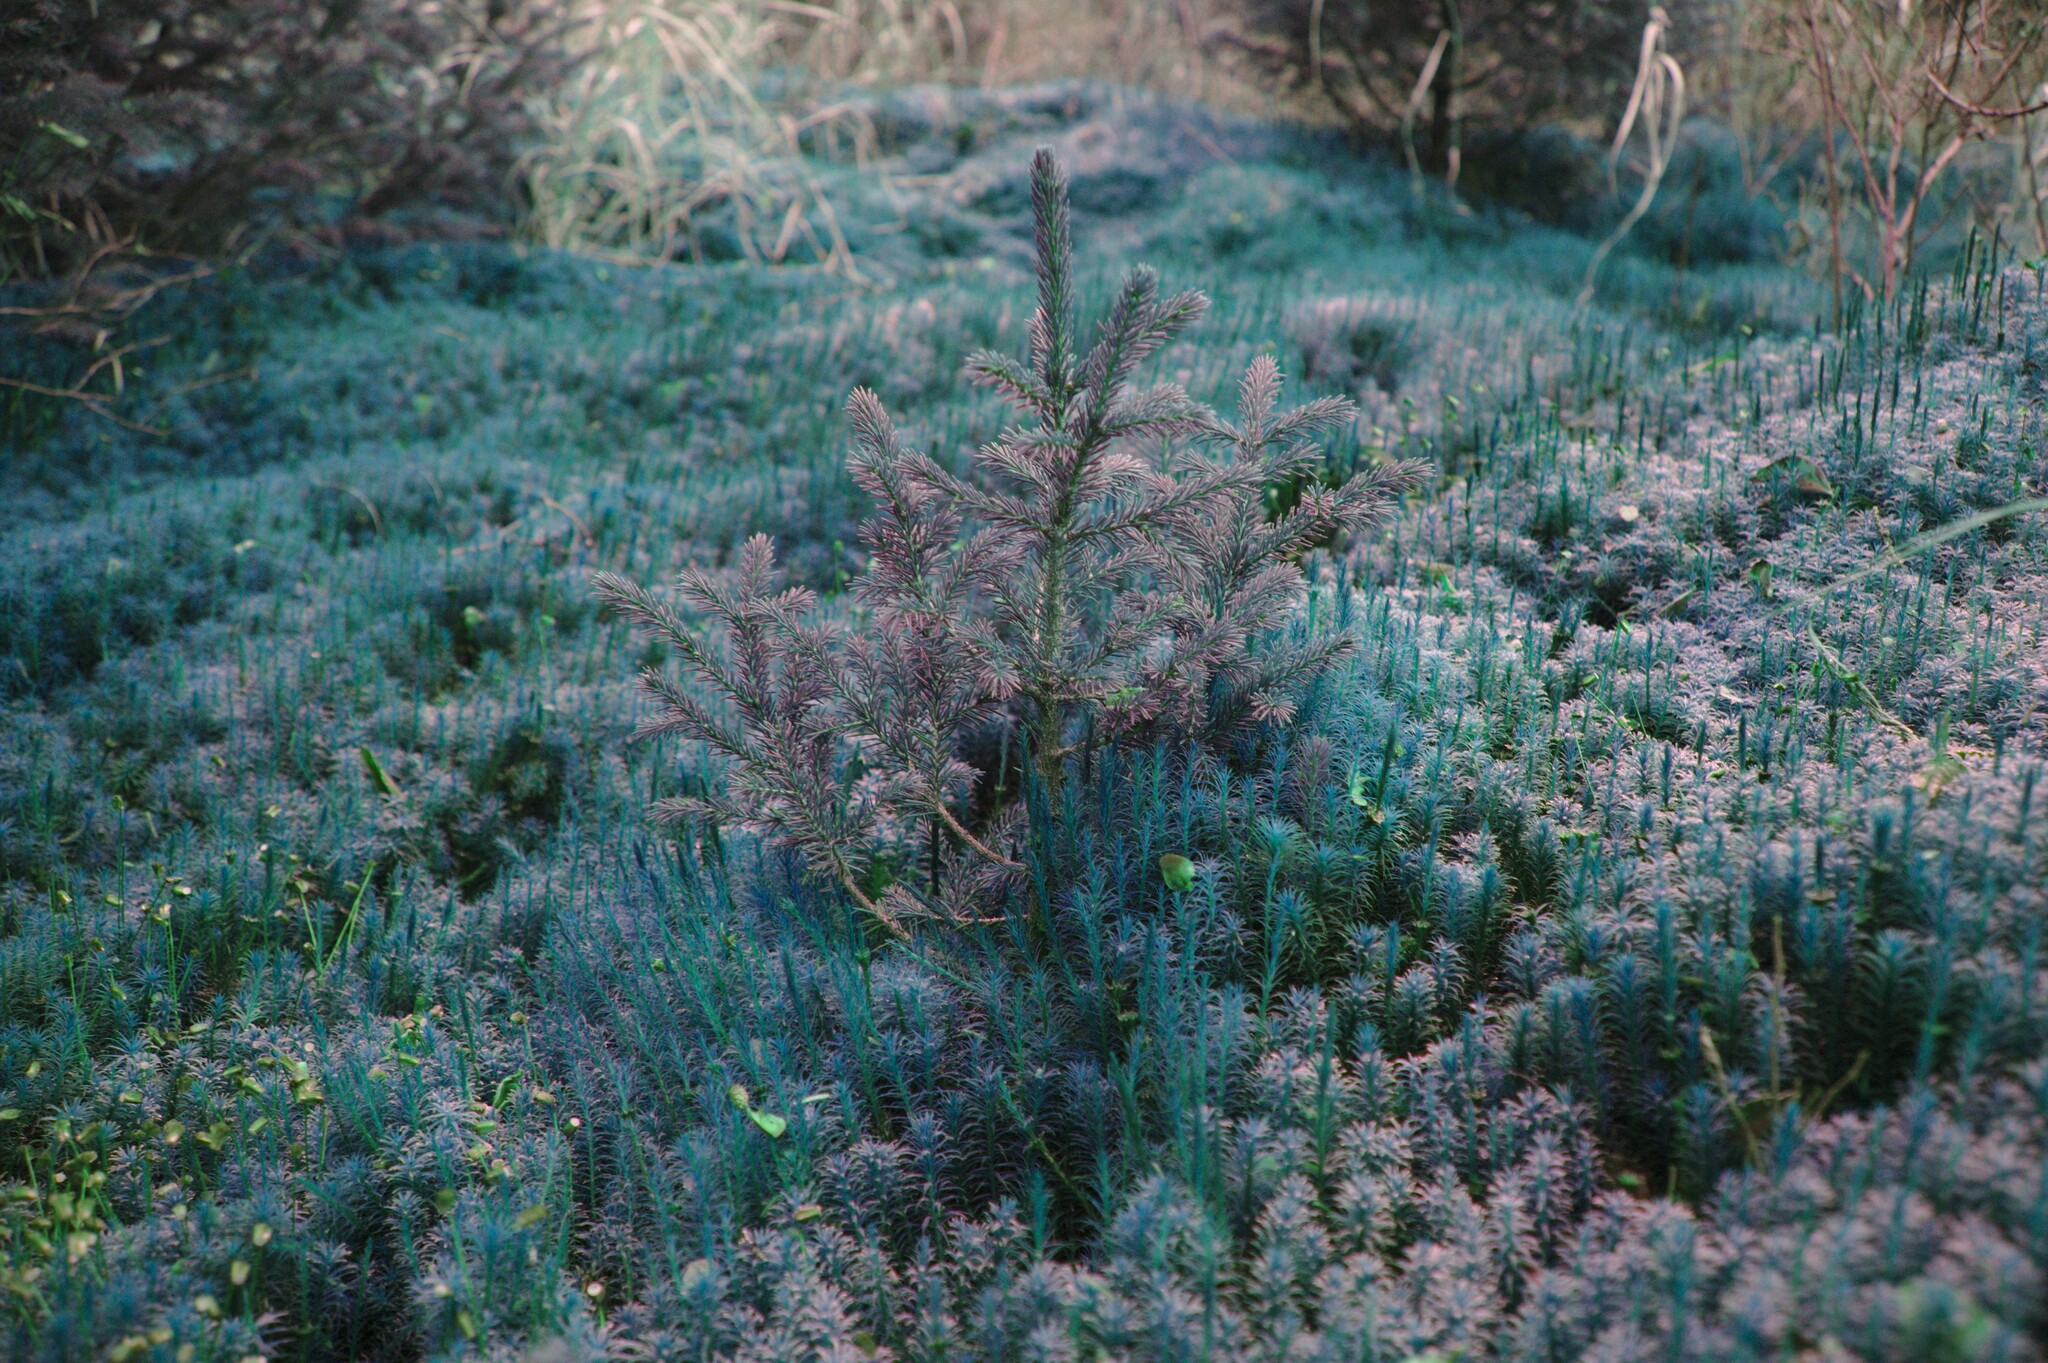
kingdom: Plantae
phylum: Tracheophyta
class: Pinopsida
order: Pinales
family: Pinaceae
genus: Picea
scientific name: Picea mariana
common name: Black spruce
